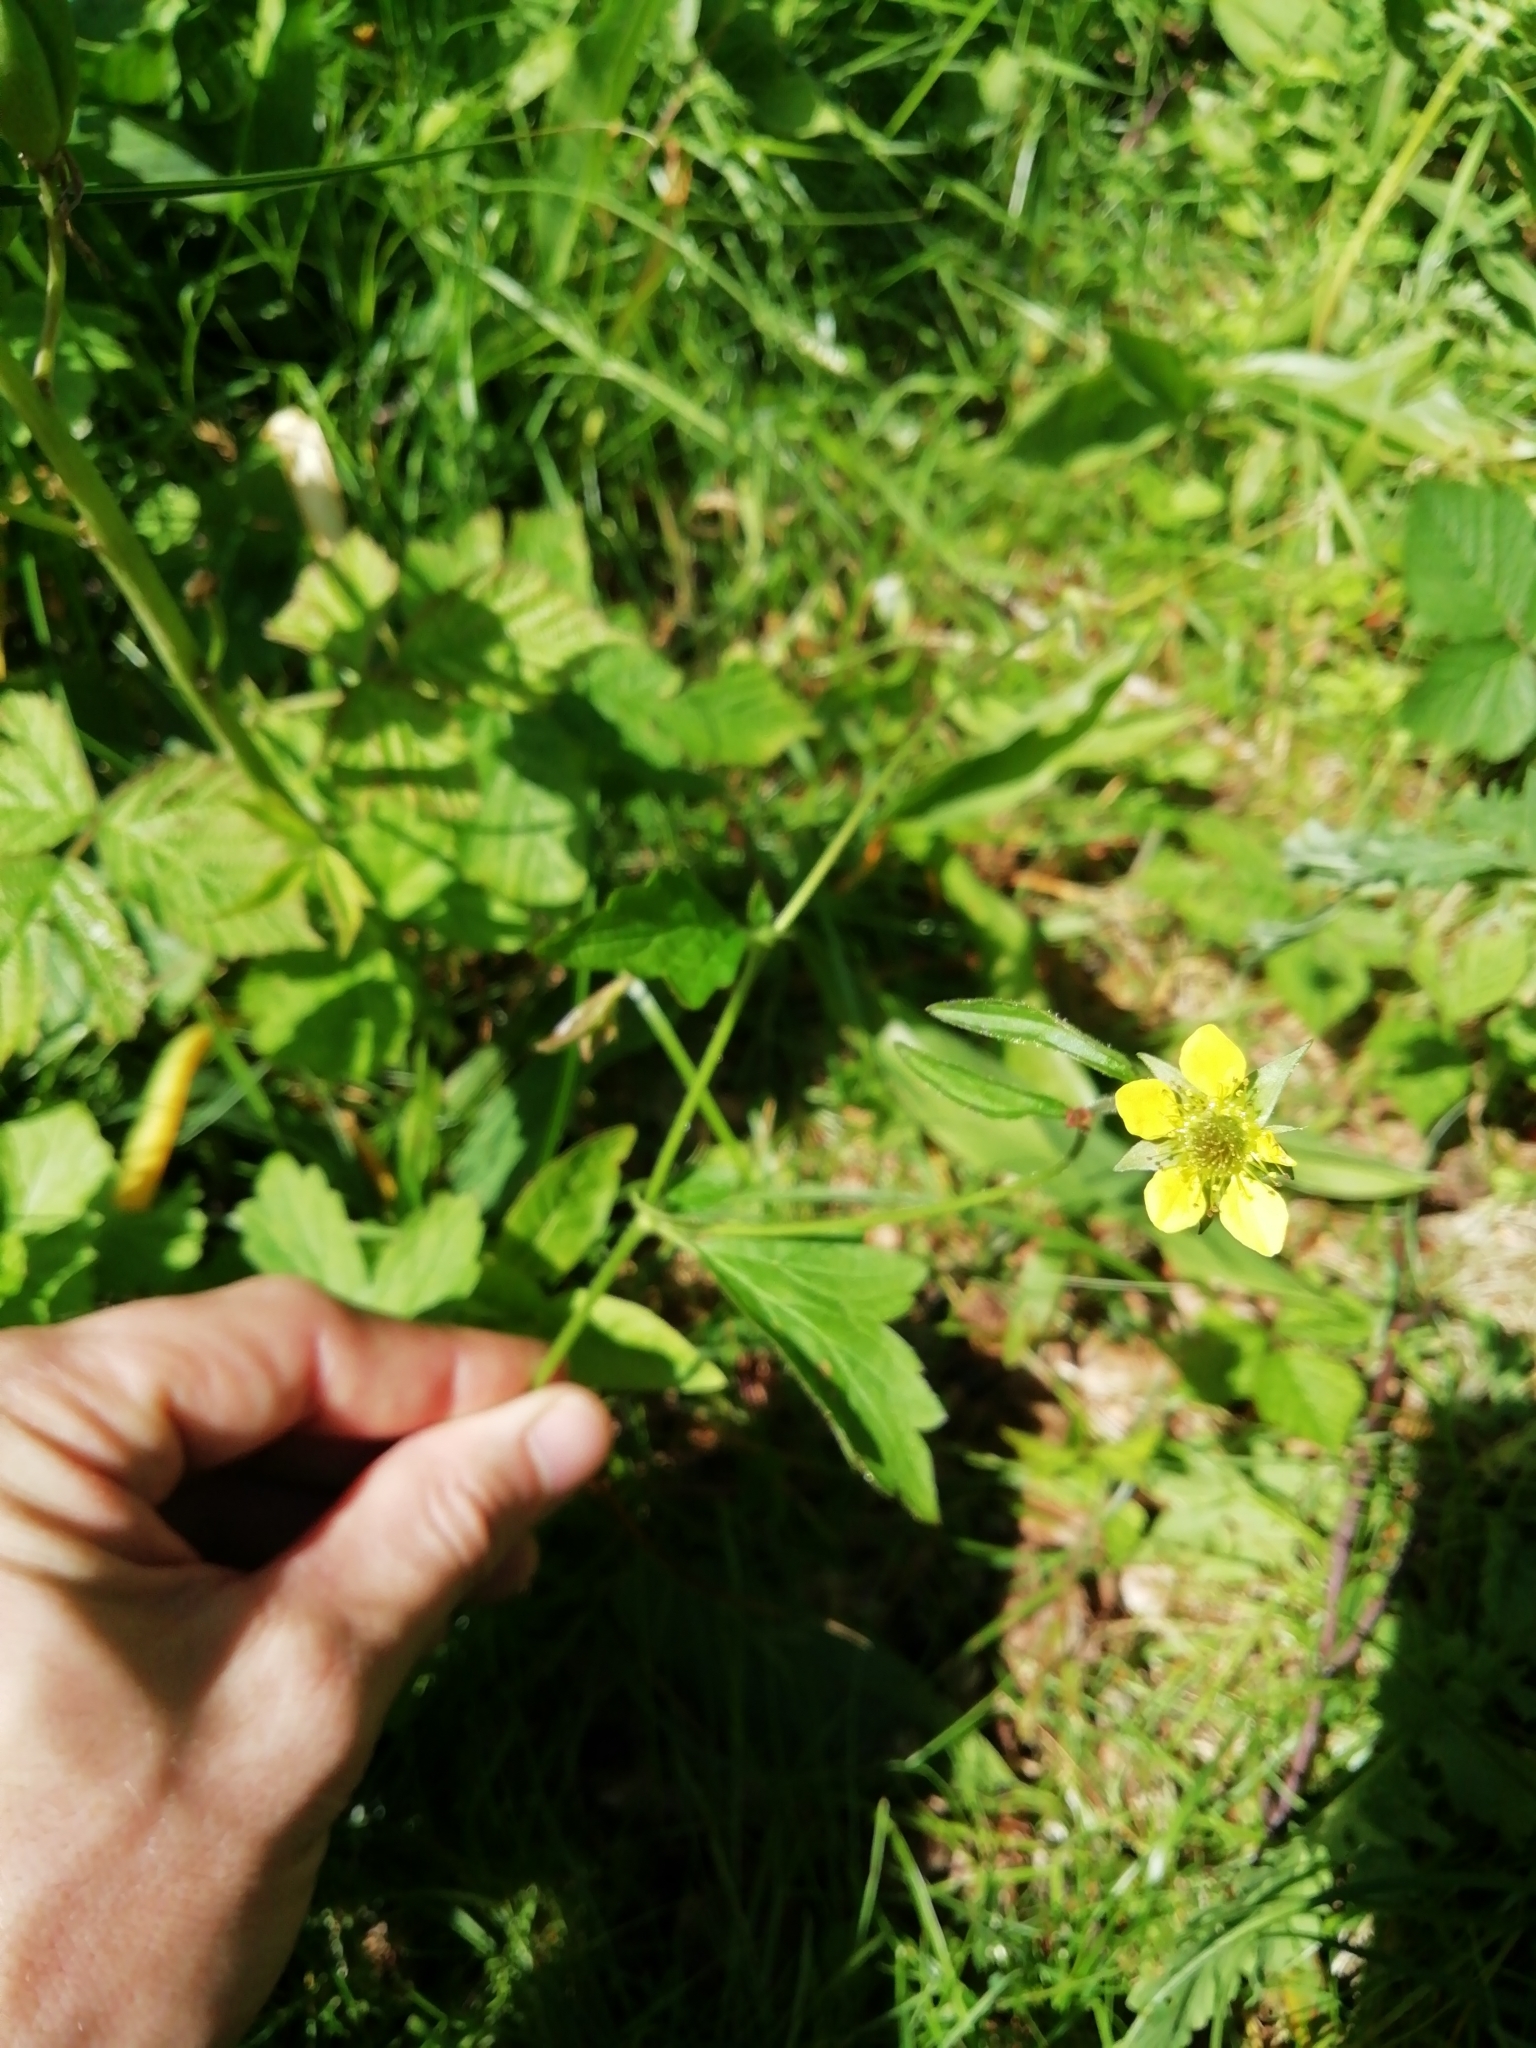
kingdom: Plantae
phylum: Tracheophyta
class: Magnoliopsida
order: Rosales
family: Rosaceae
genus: Geum
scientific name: Geum urbanum
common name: Wood avens
